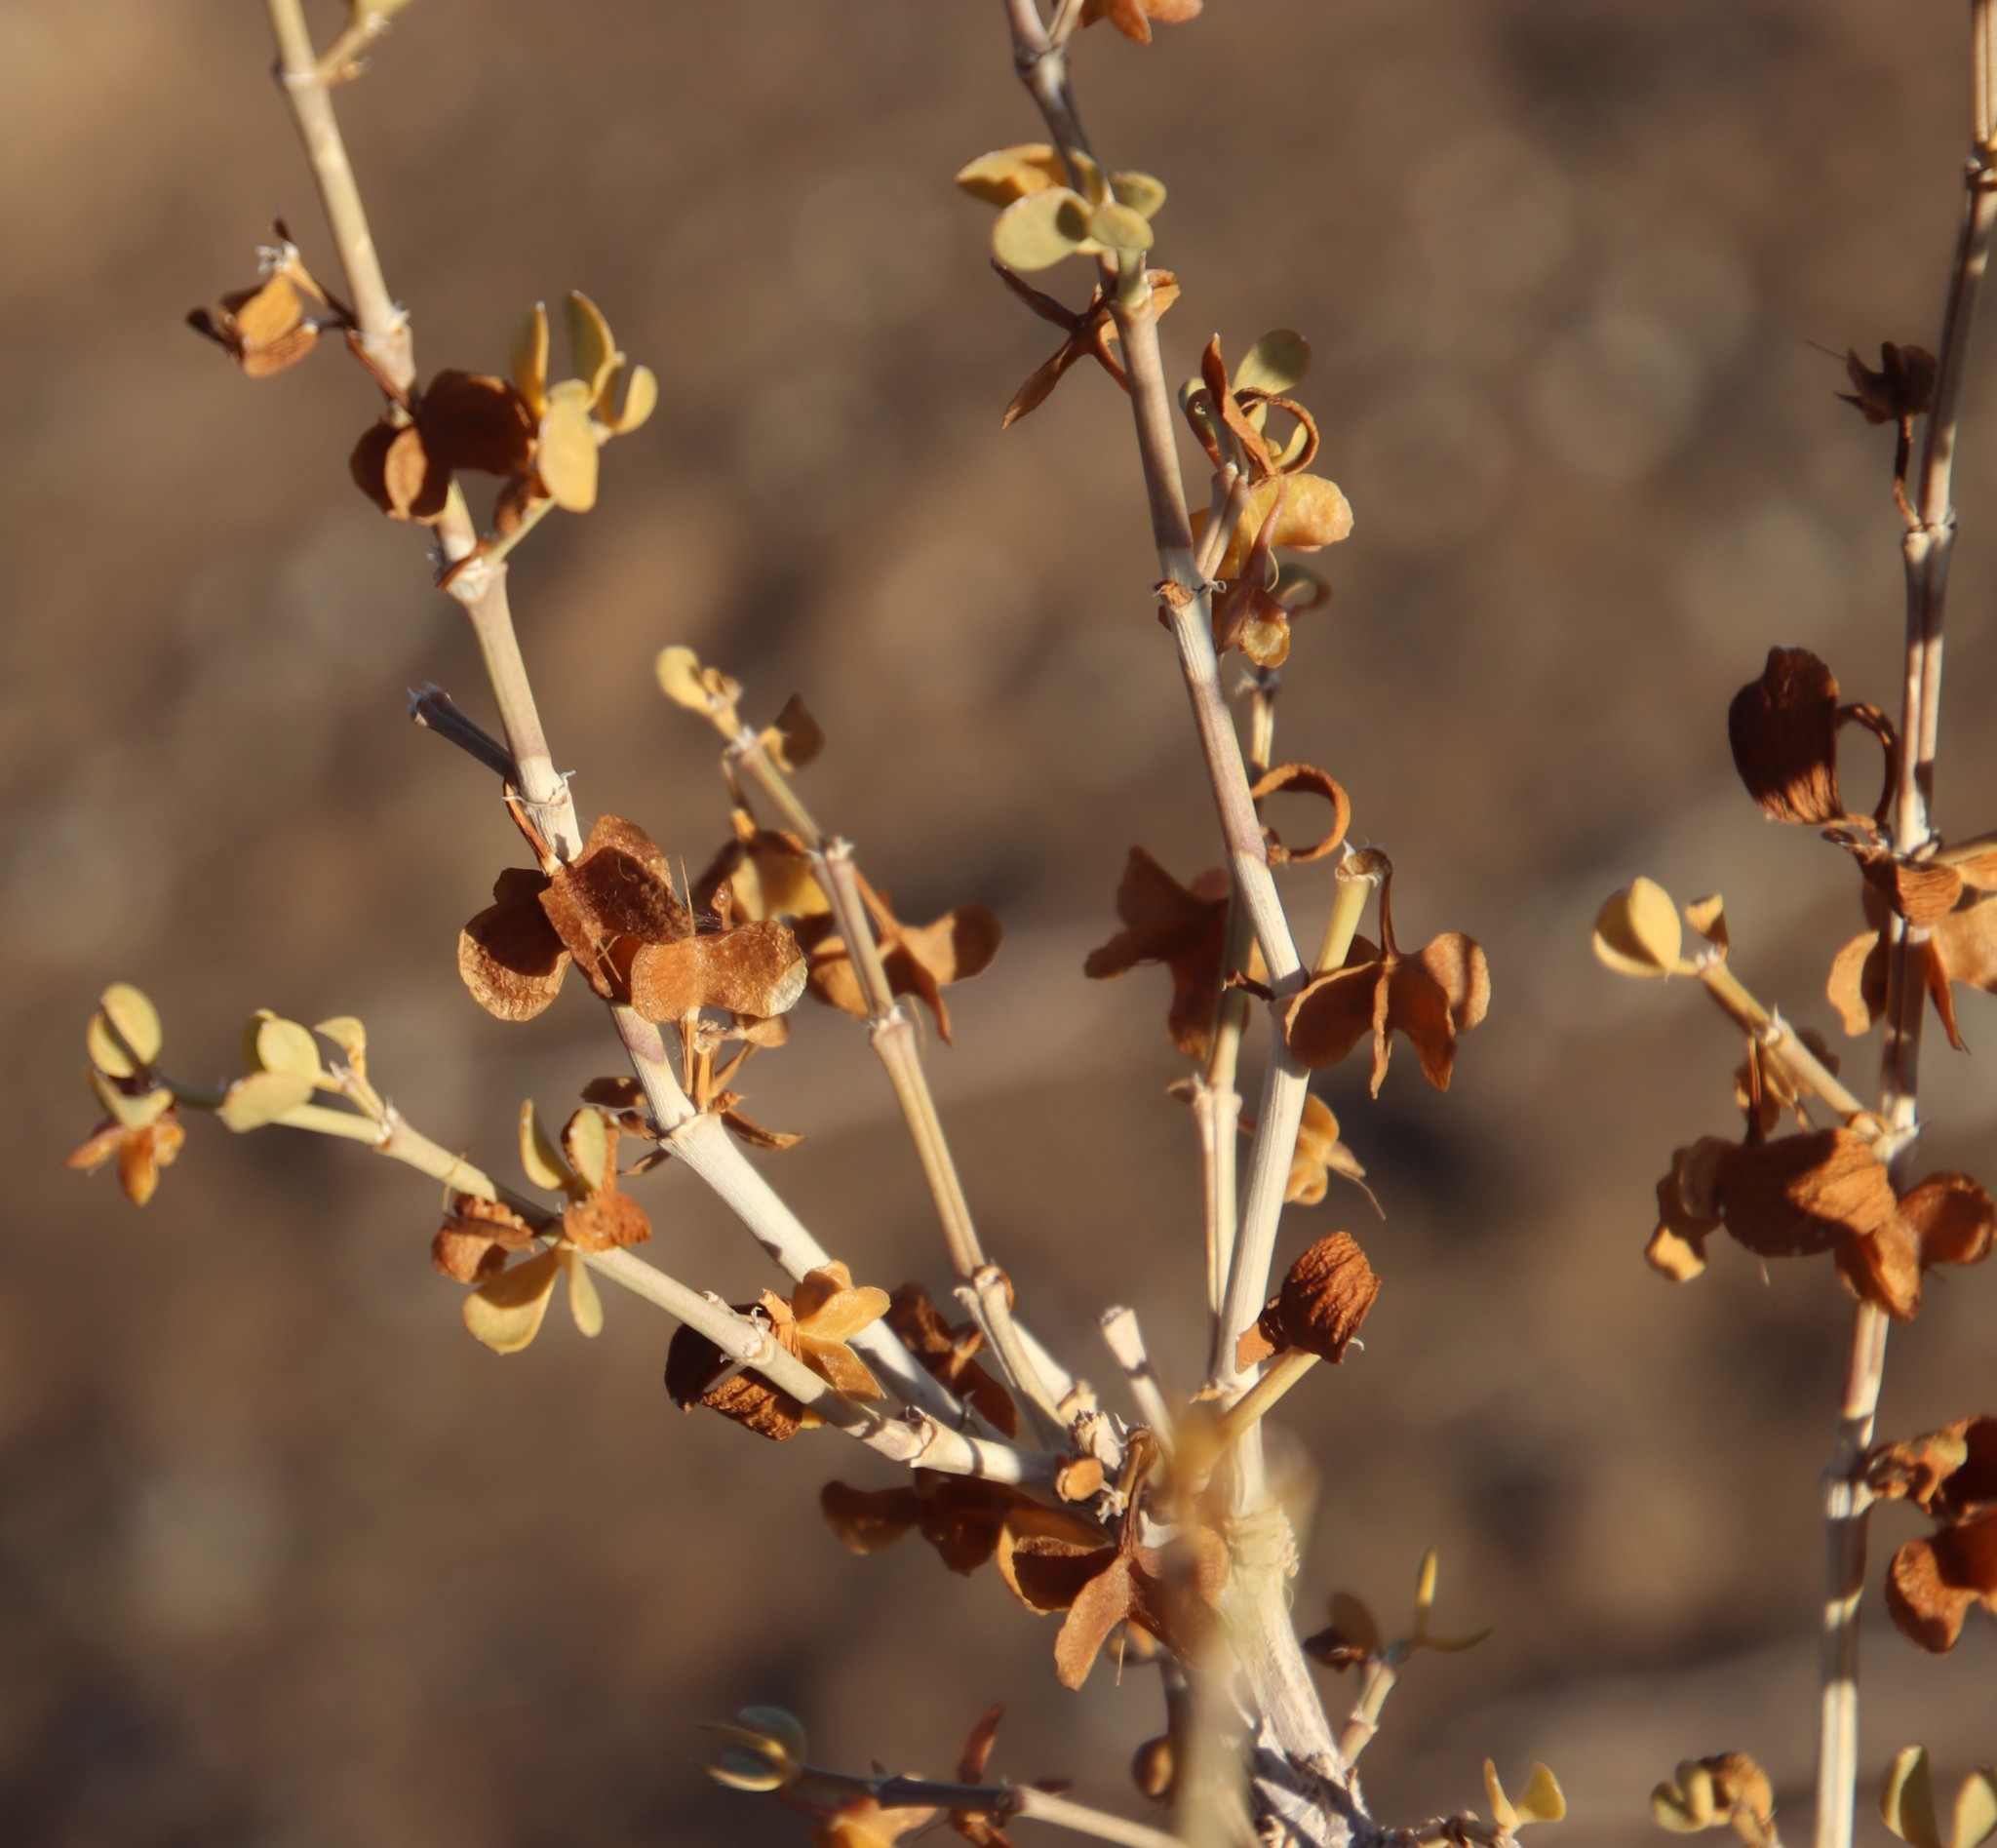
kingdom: Plantae
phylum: Tracheophyta
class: Magnoliopsida
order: Zygophyllales
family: Zygophyllaceae
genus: Tetraena
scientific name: Tetraena rigida
